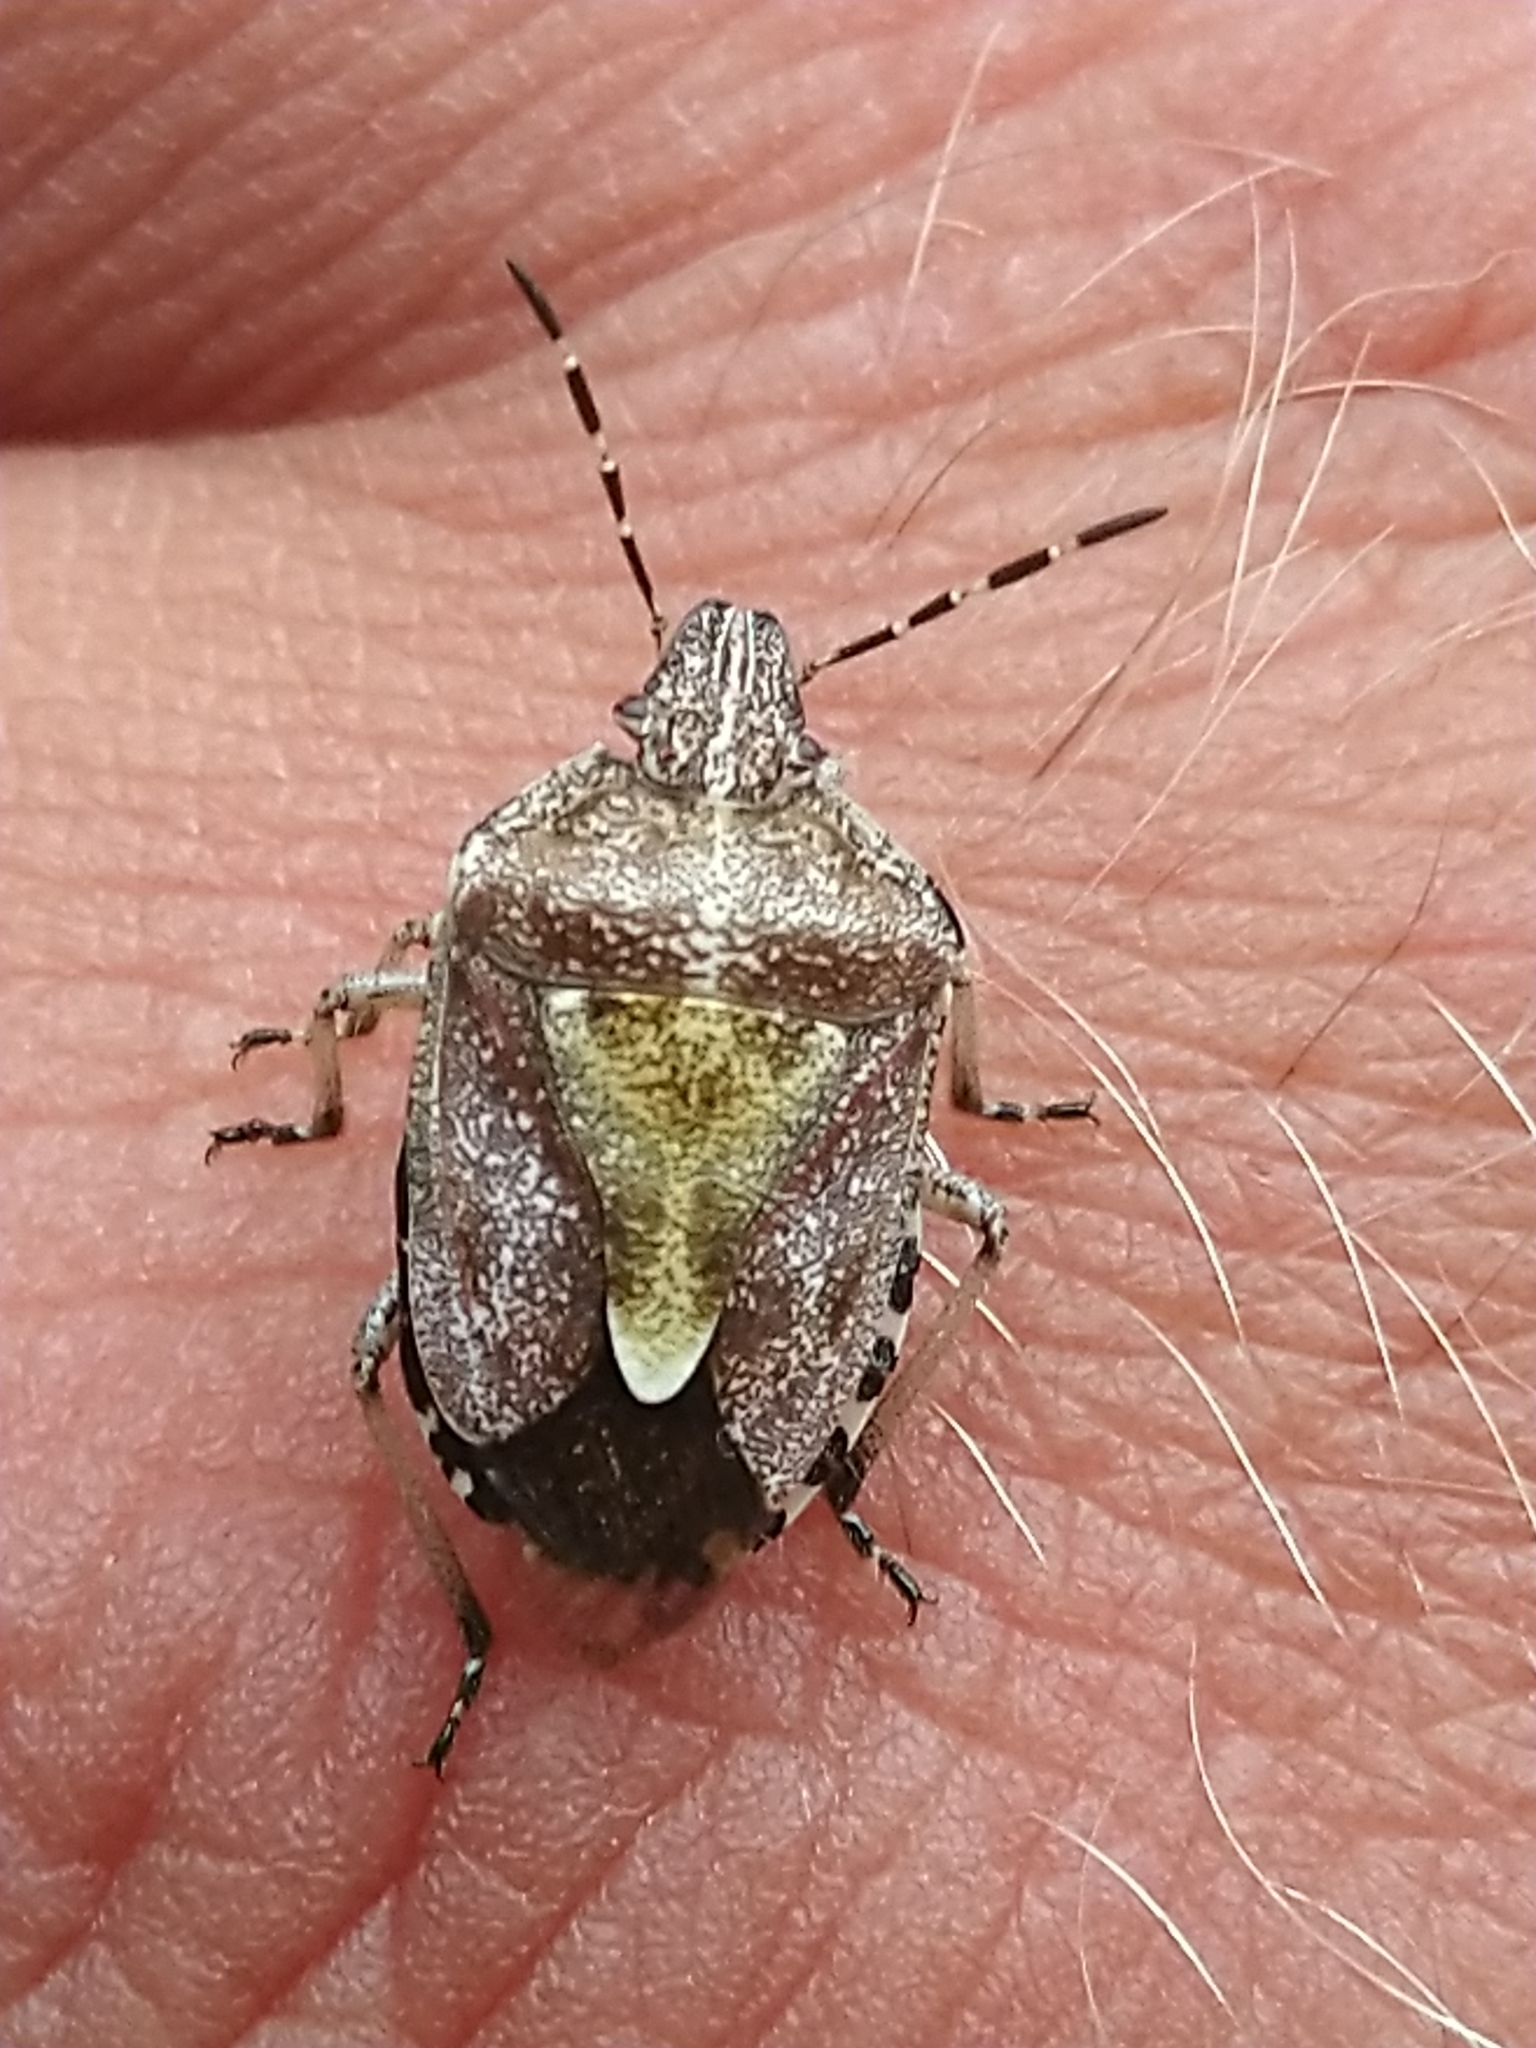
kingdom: Animalia
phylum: Arthropoda
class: Insecta
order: Hemiptera
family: Pentatomidae
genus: Dolycoris
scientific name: Dolycoris baccarum
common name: Sloe bug
